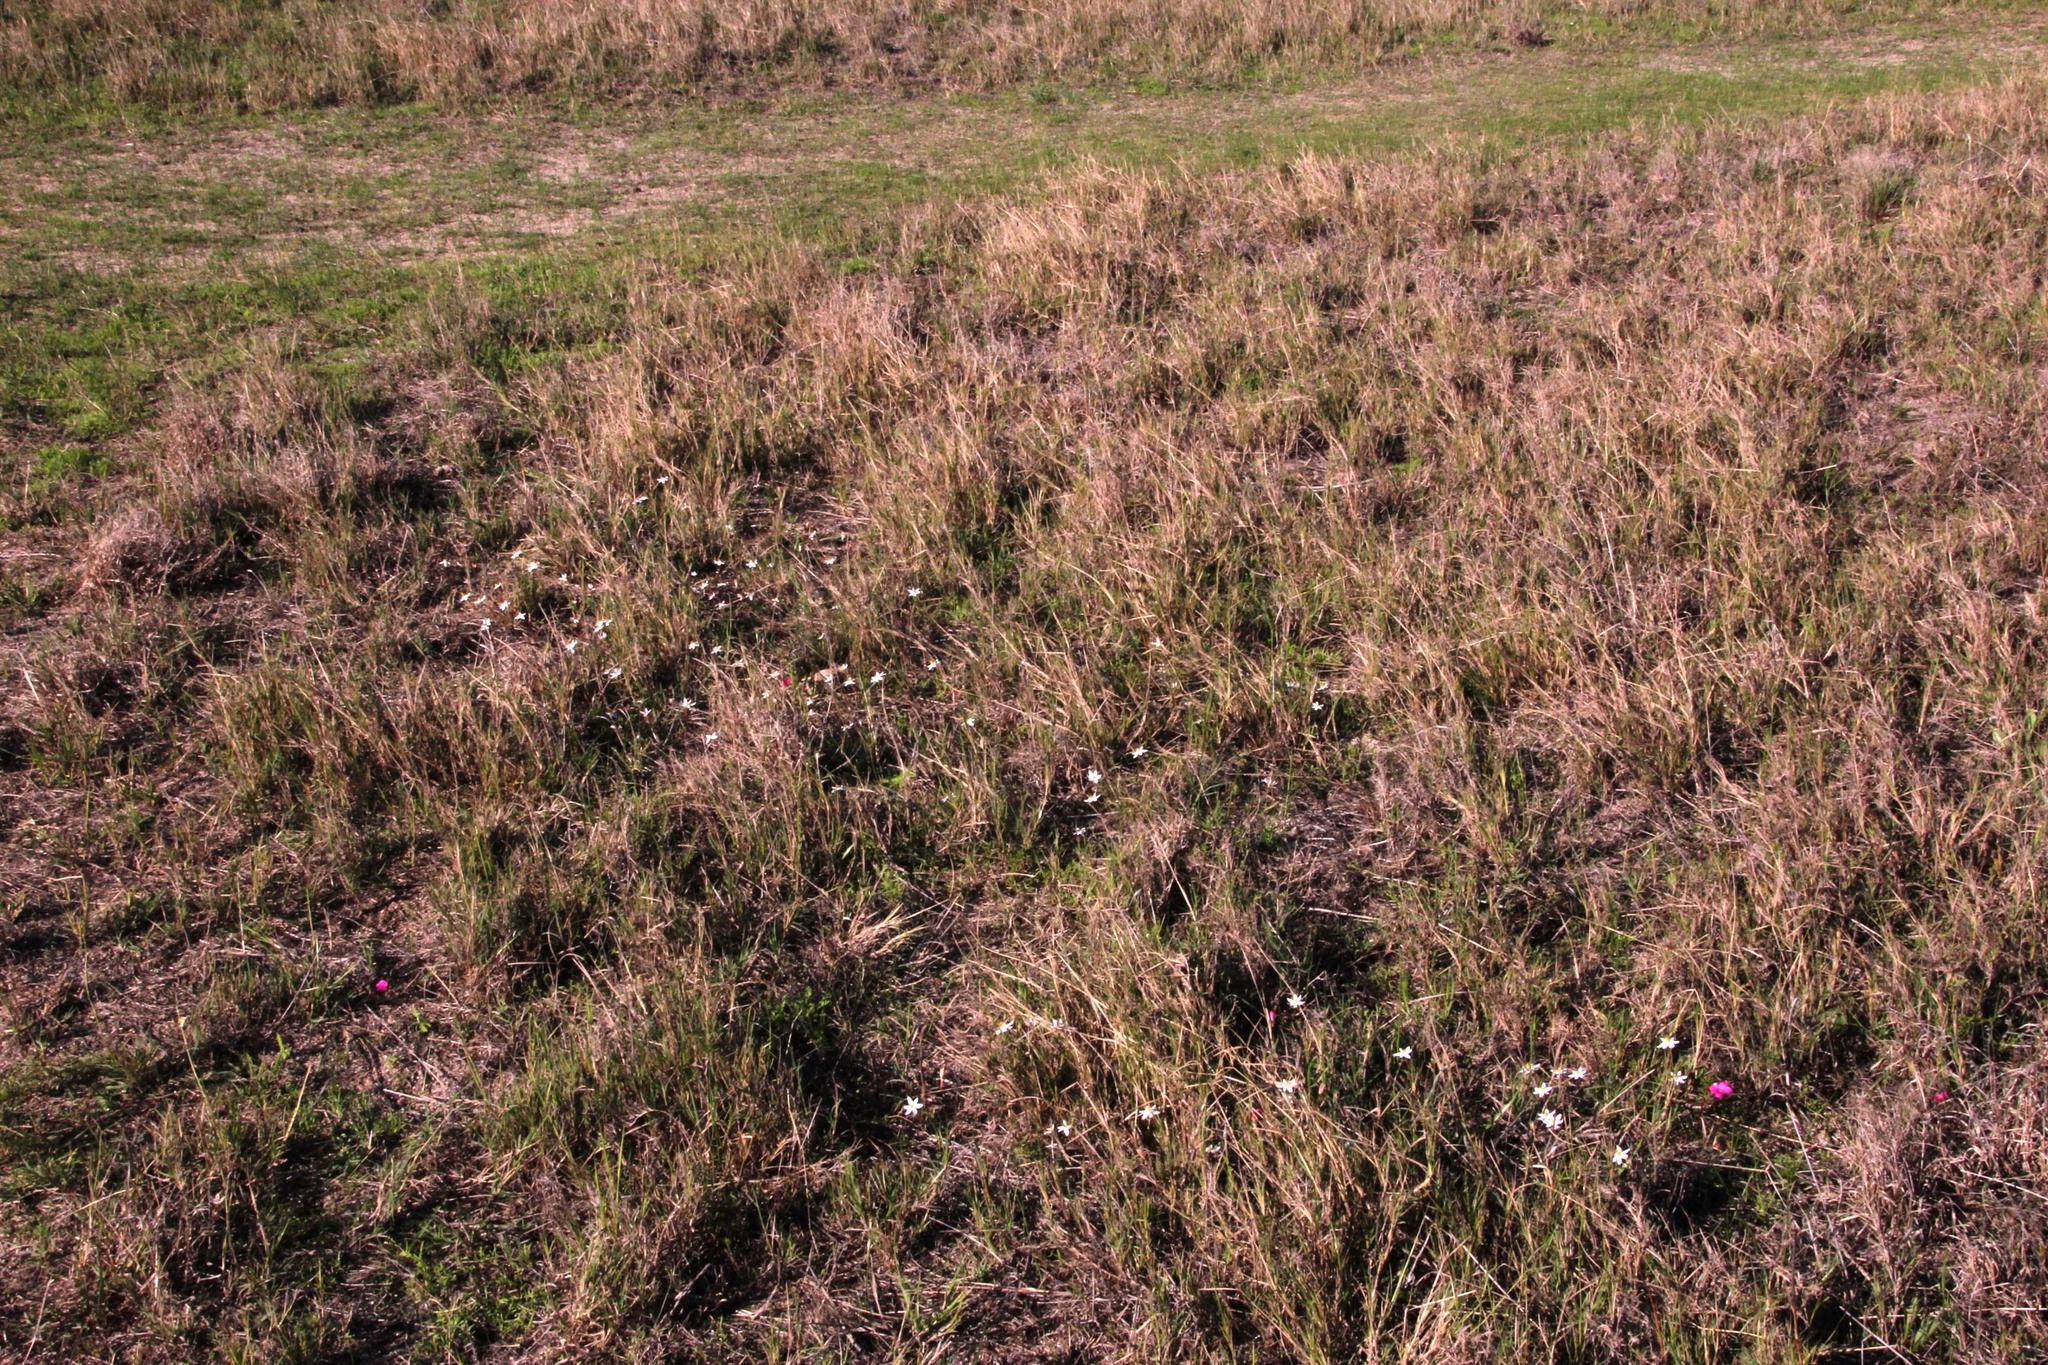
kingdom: Plantae
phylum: Tracheophyta
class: Liliopsida
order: Asparagales
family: Hypoxidaceae
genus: Pauridia
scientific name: Pauridia alba
